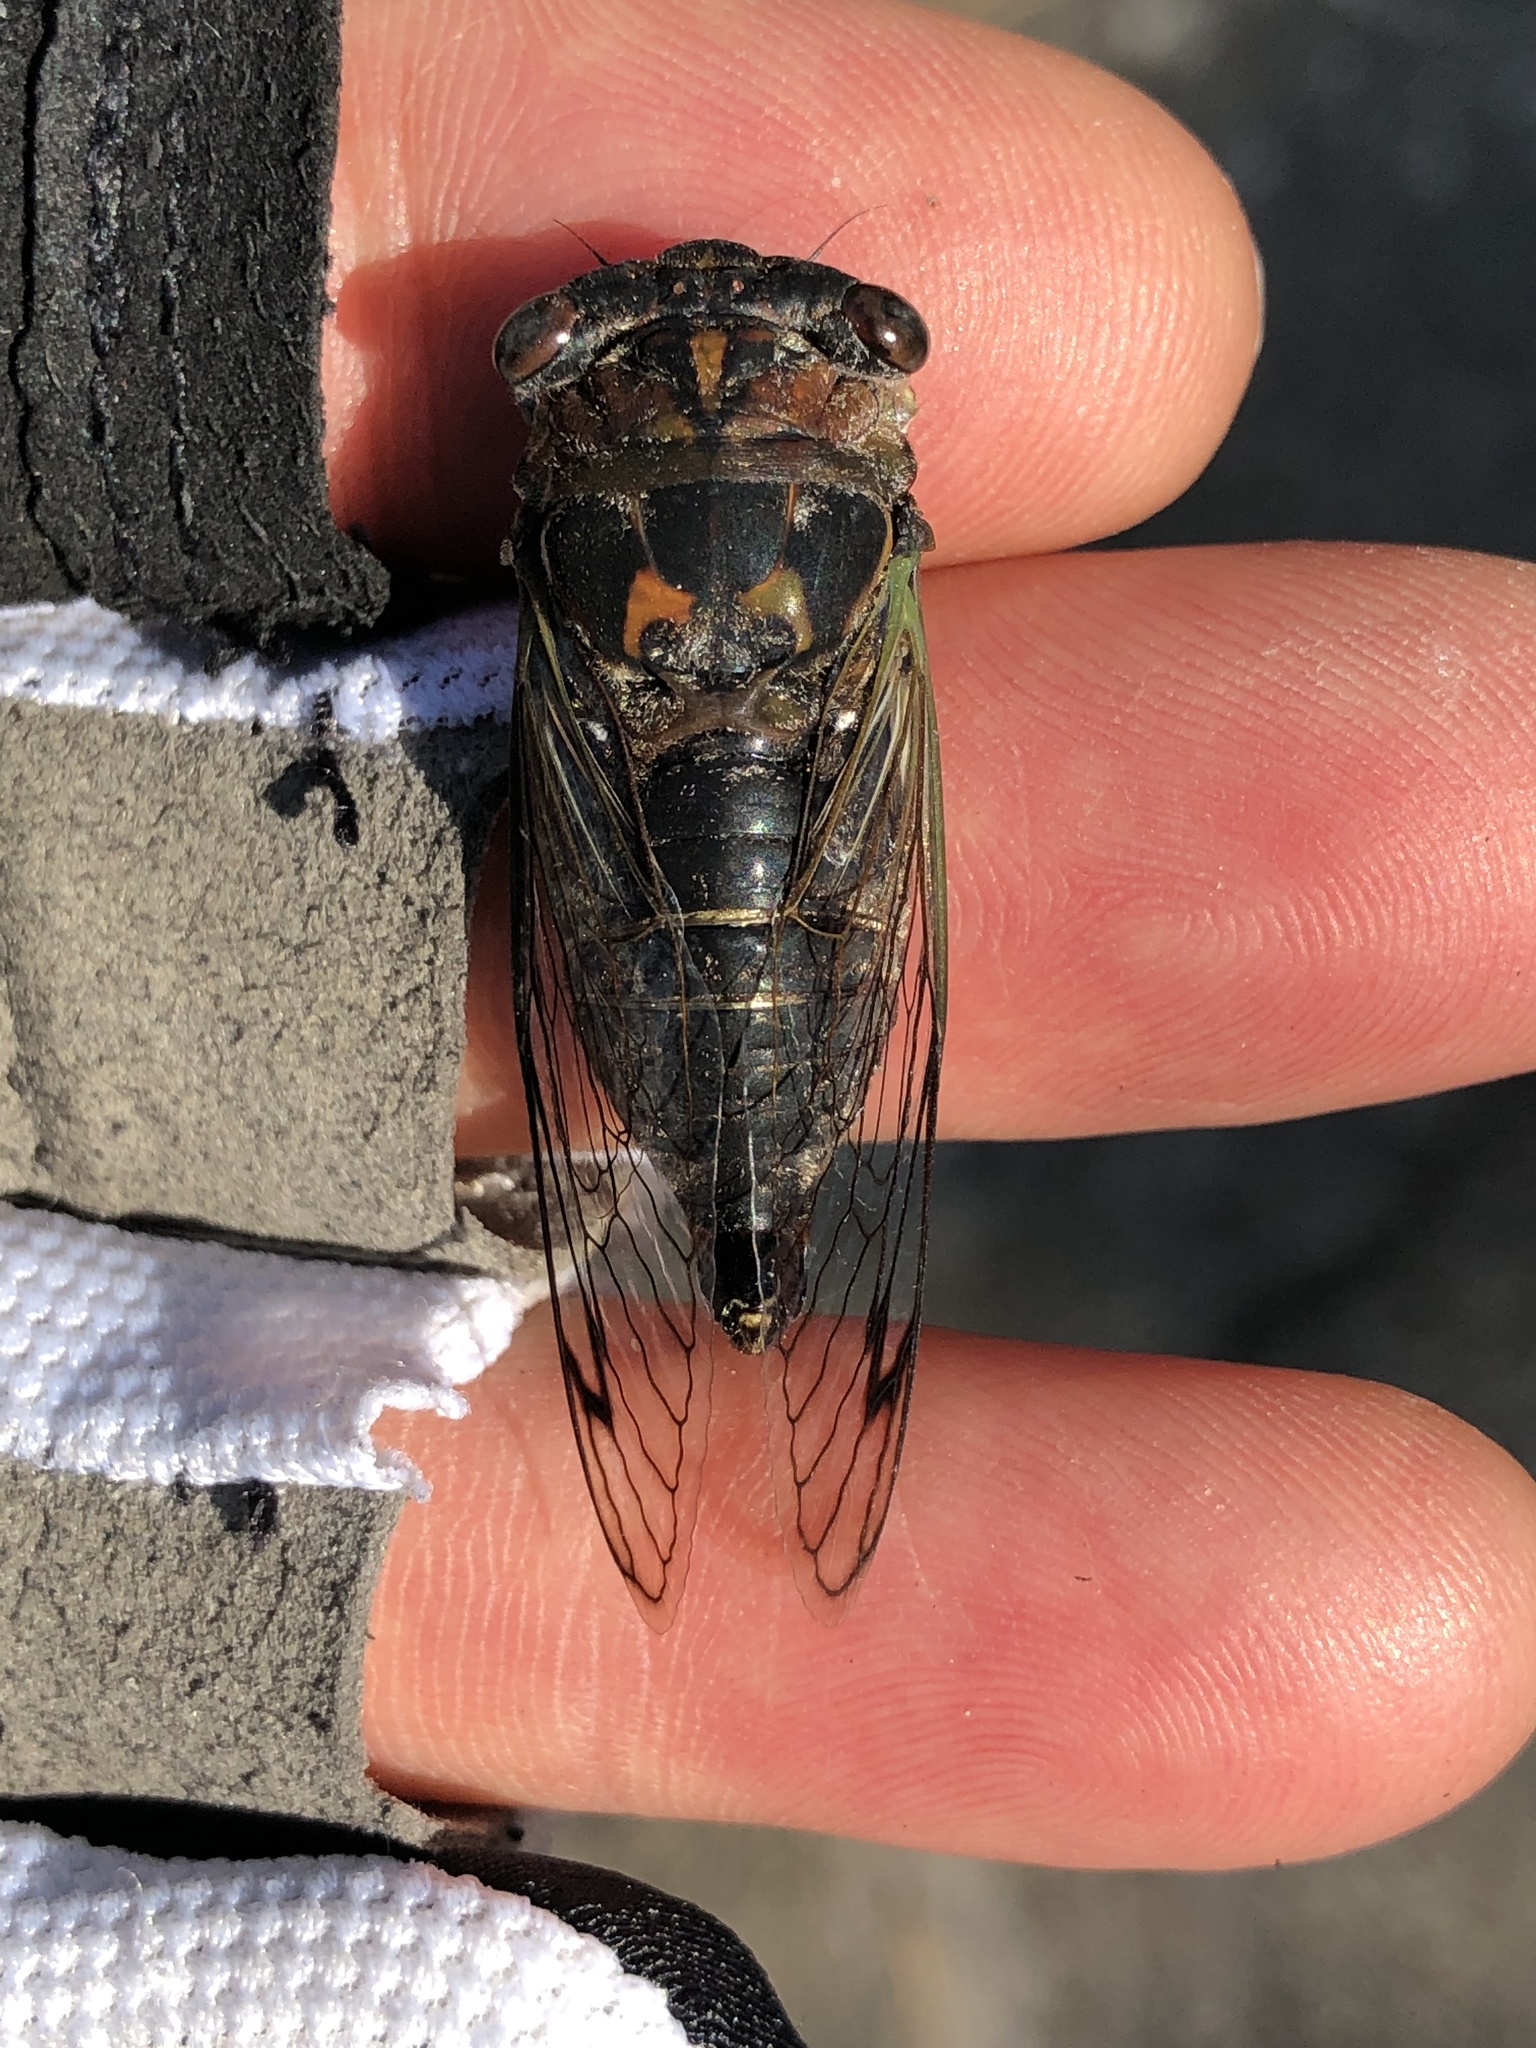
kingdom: Animalia
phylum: Arthropoda
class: Insecta
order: Hemiptera
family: Cicadidae
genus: Neotibicen
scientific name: Neotibicen davisi
